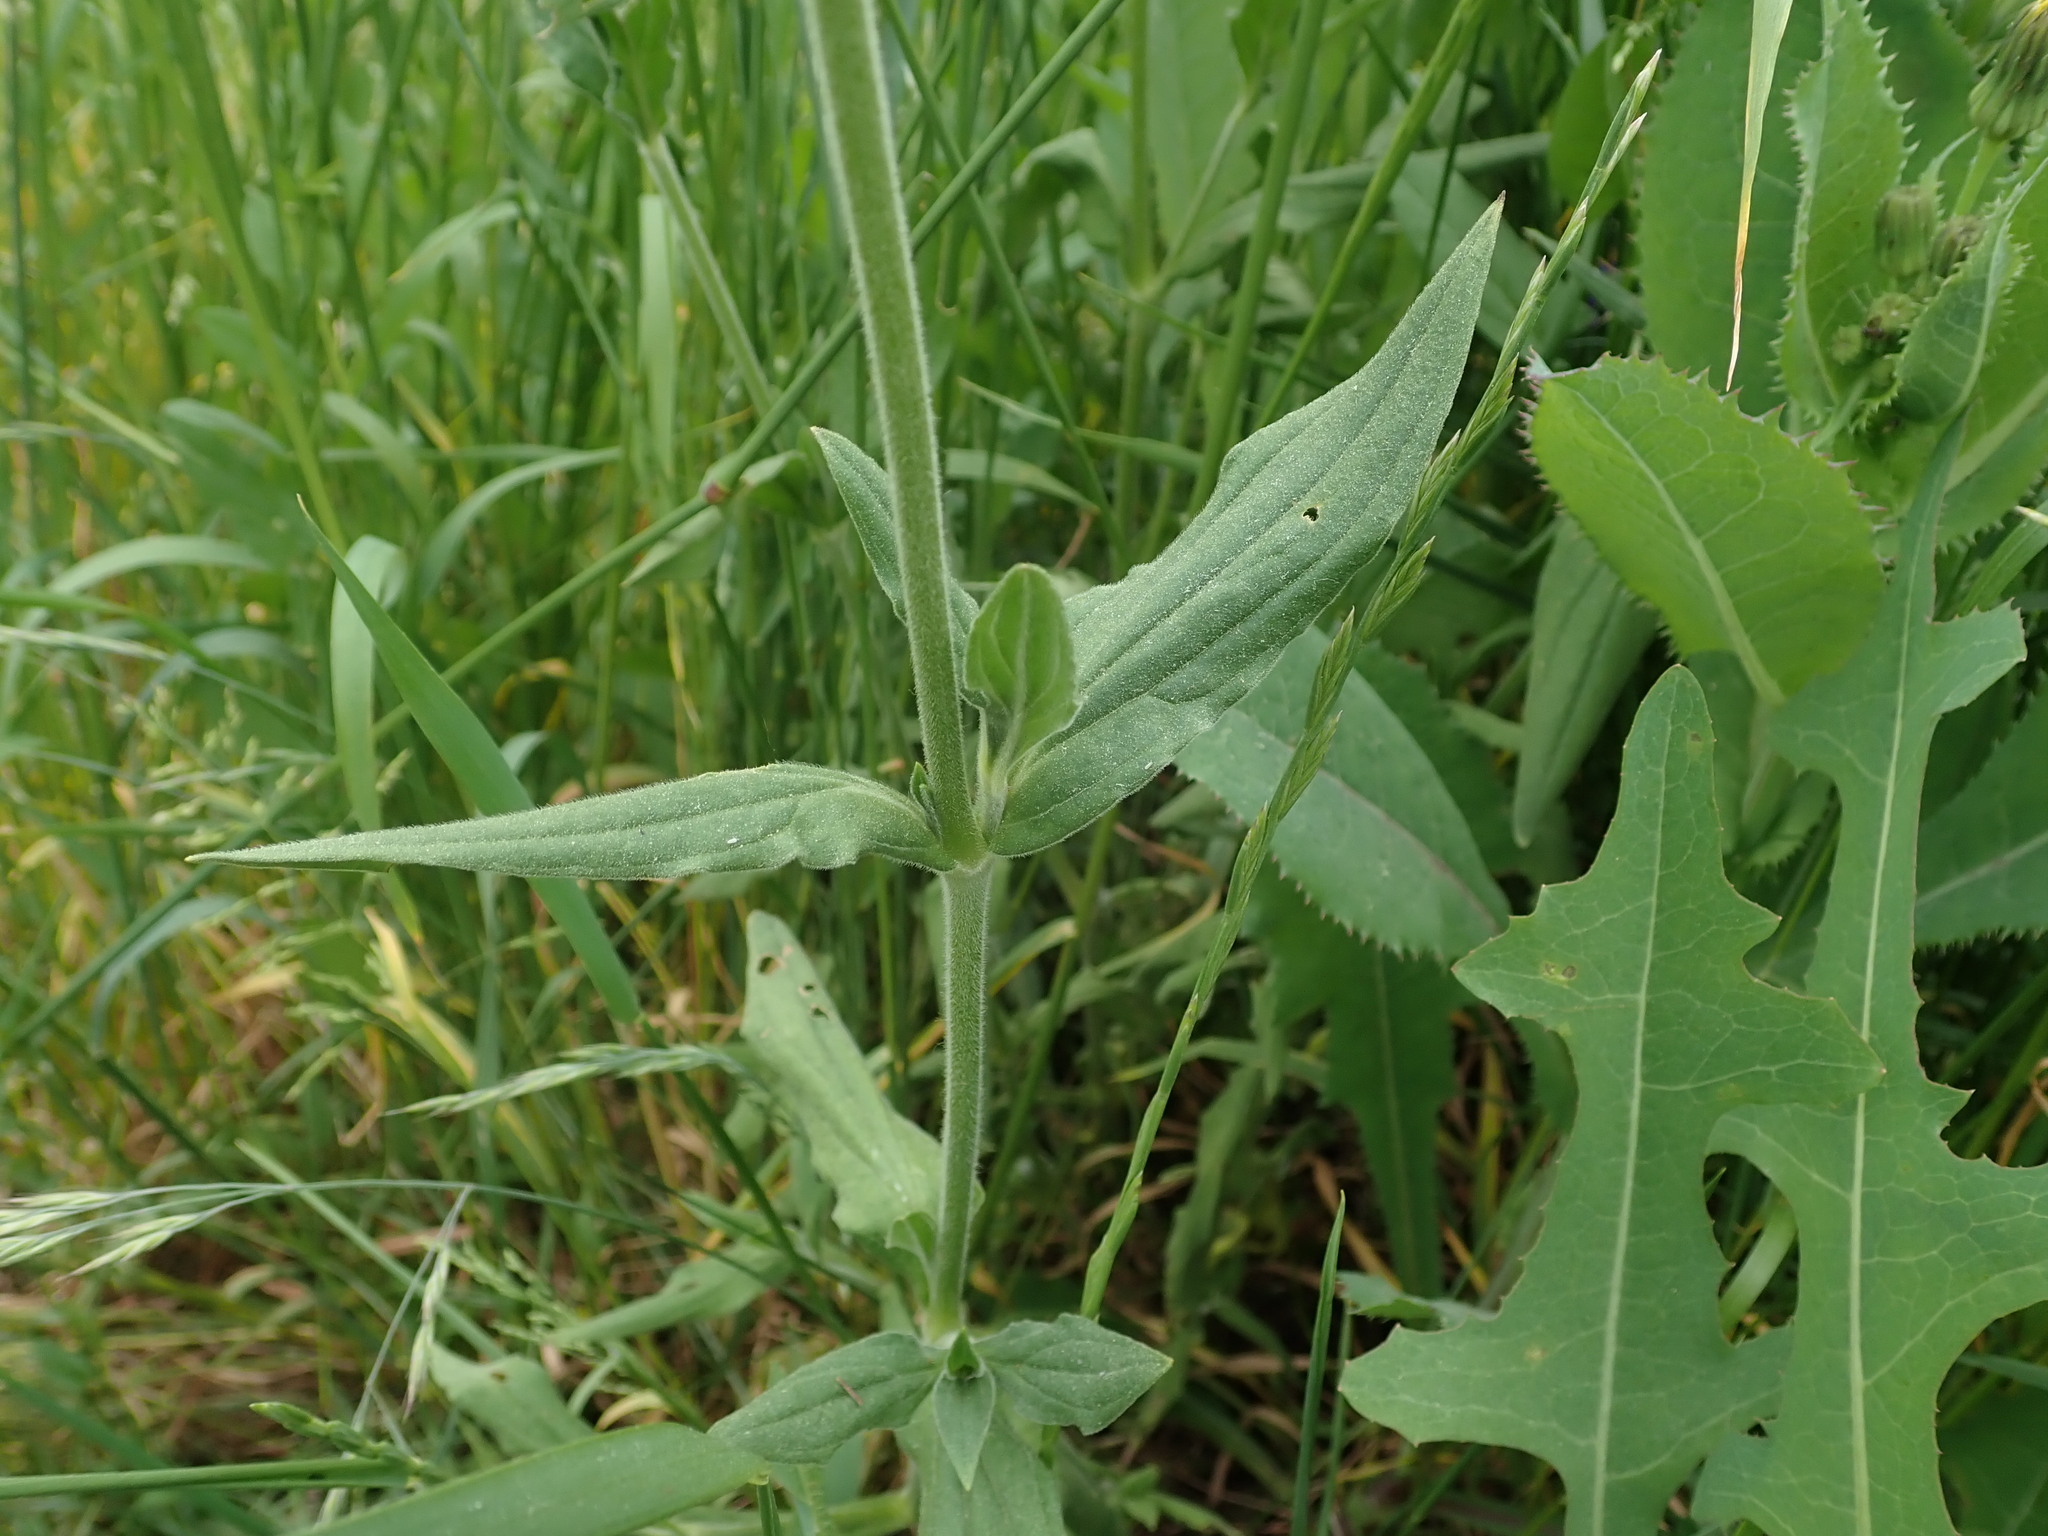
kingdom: Plantae
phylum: Tracheophyta
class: Magnoliopsida
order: Caryophyllales
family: Caryophyllaceae
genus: Silene
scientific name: Silene latifolia
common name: White campion
